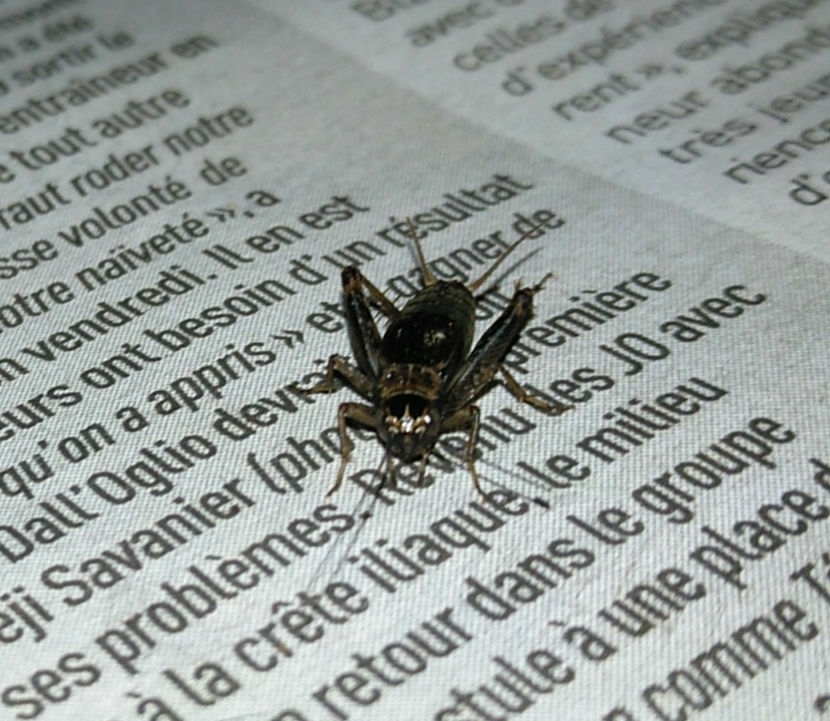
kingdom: Animalia
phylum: Arthropoda
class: Insecta
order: Orthoptera
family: Trigonidiidae
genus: Nemobius
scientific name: Nemobius sylvestris
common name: Wood-cricket
